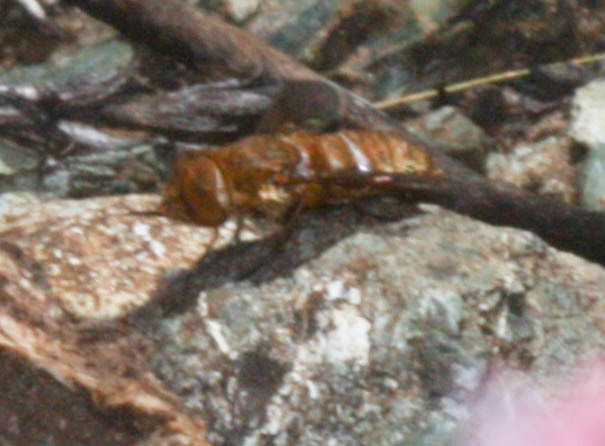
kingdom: Animalia
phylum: Arthropoda
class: Insecta
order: Diptera
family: Bombyliidae
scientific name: Bombyliidae
